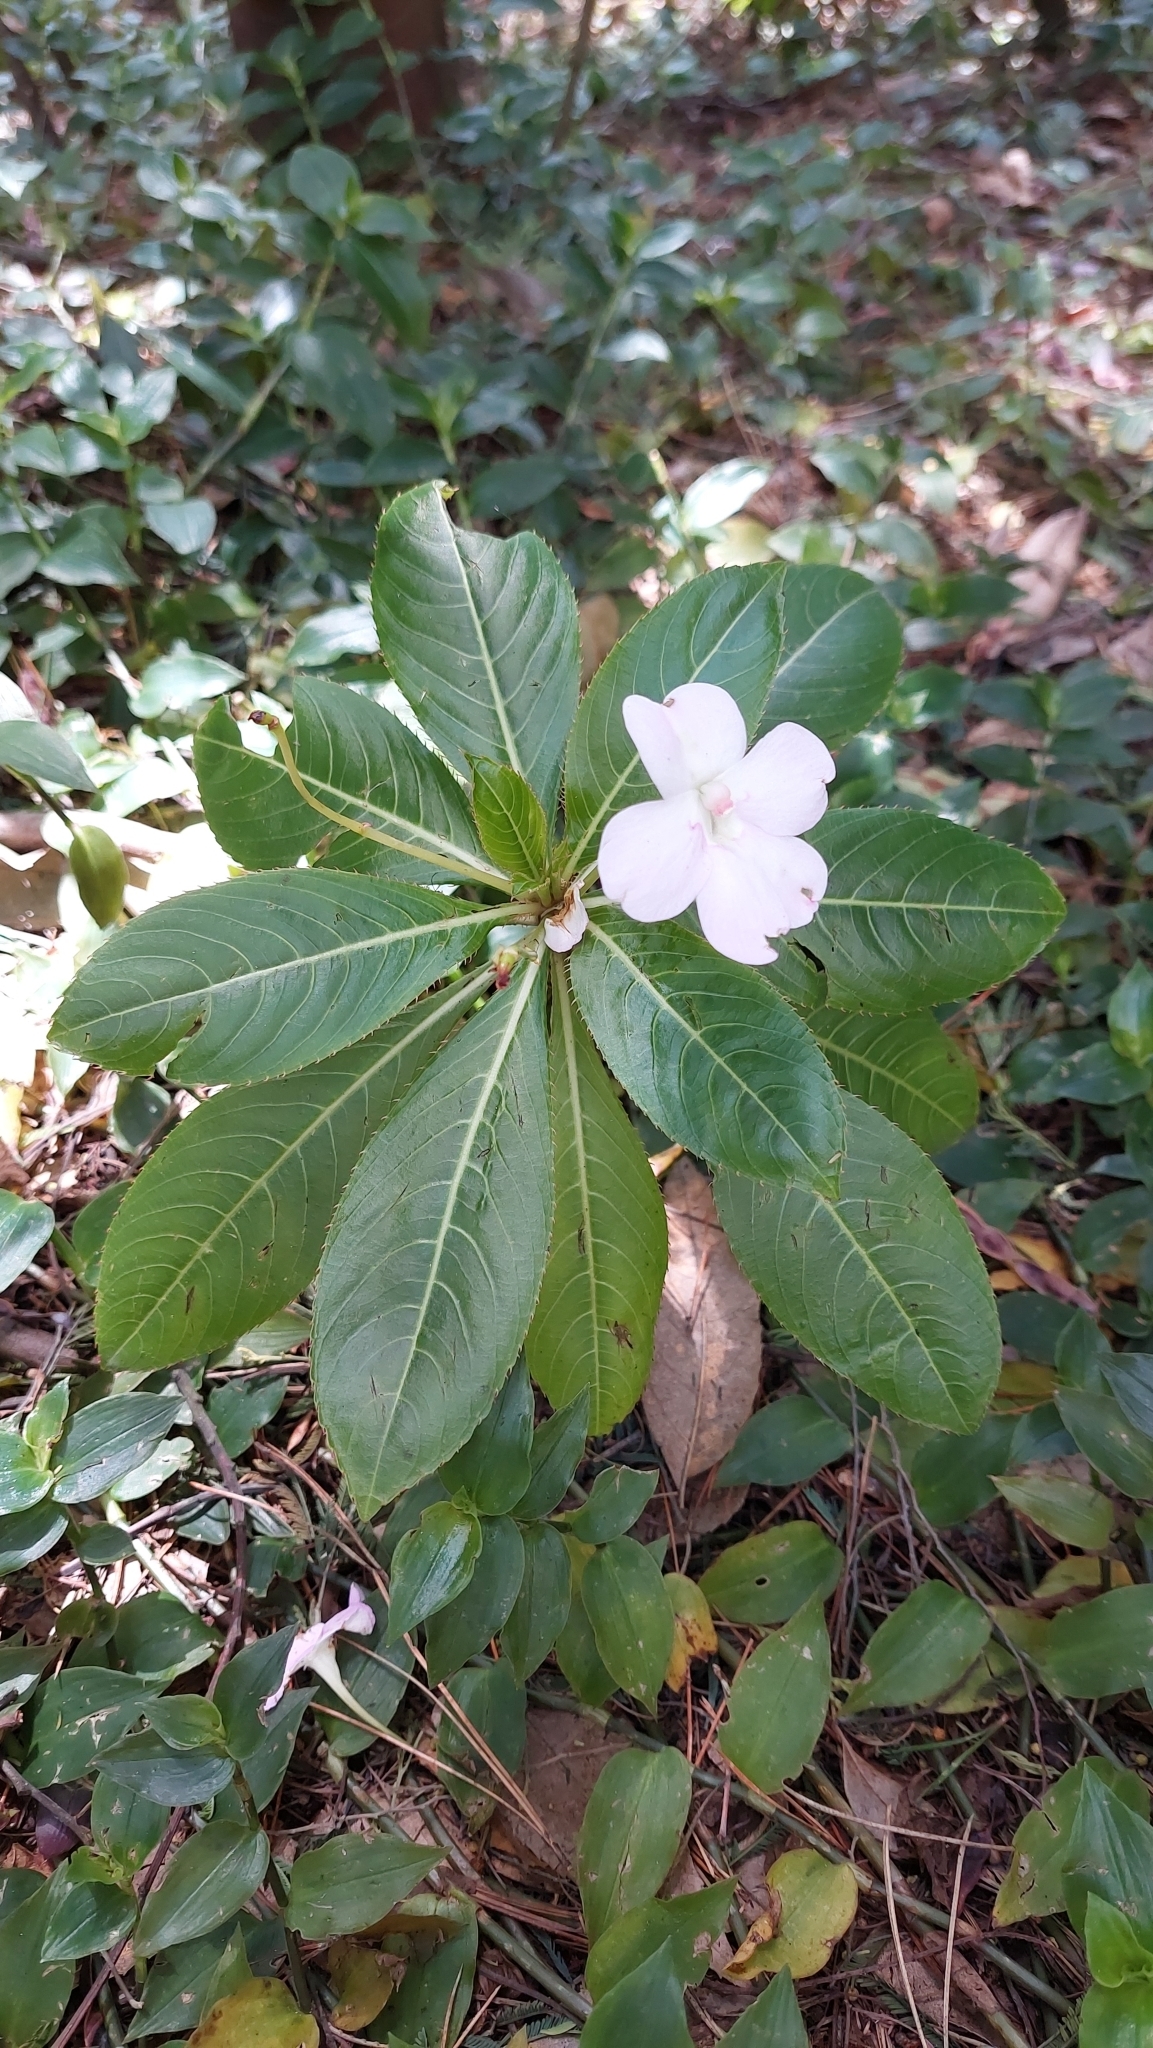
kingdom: Plantae
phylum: Tracheophyta
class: Magnoliopsida
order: Ericales
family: Balsaminaceae
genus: Impatiens
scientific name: Impatiens sodenii
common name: Oliver's touch-me-not
